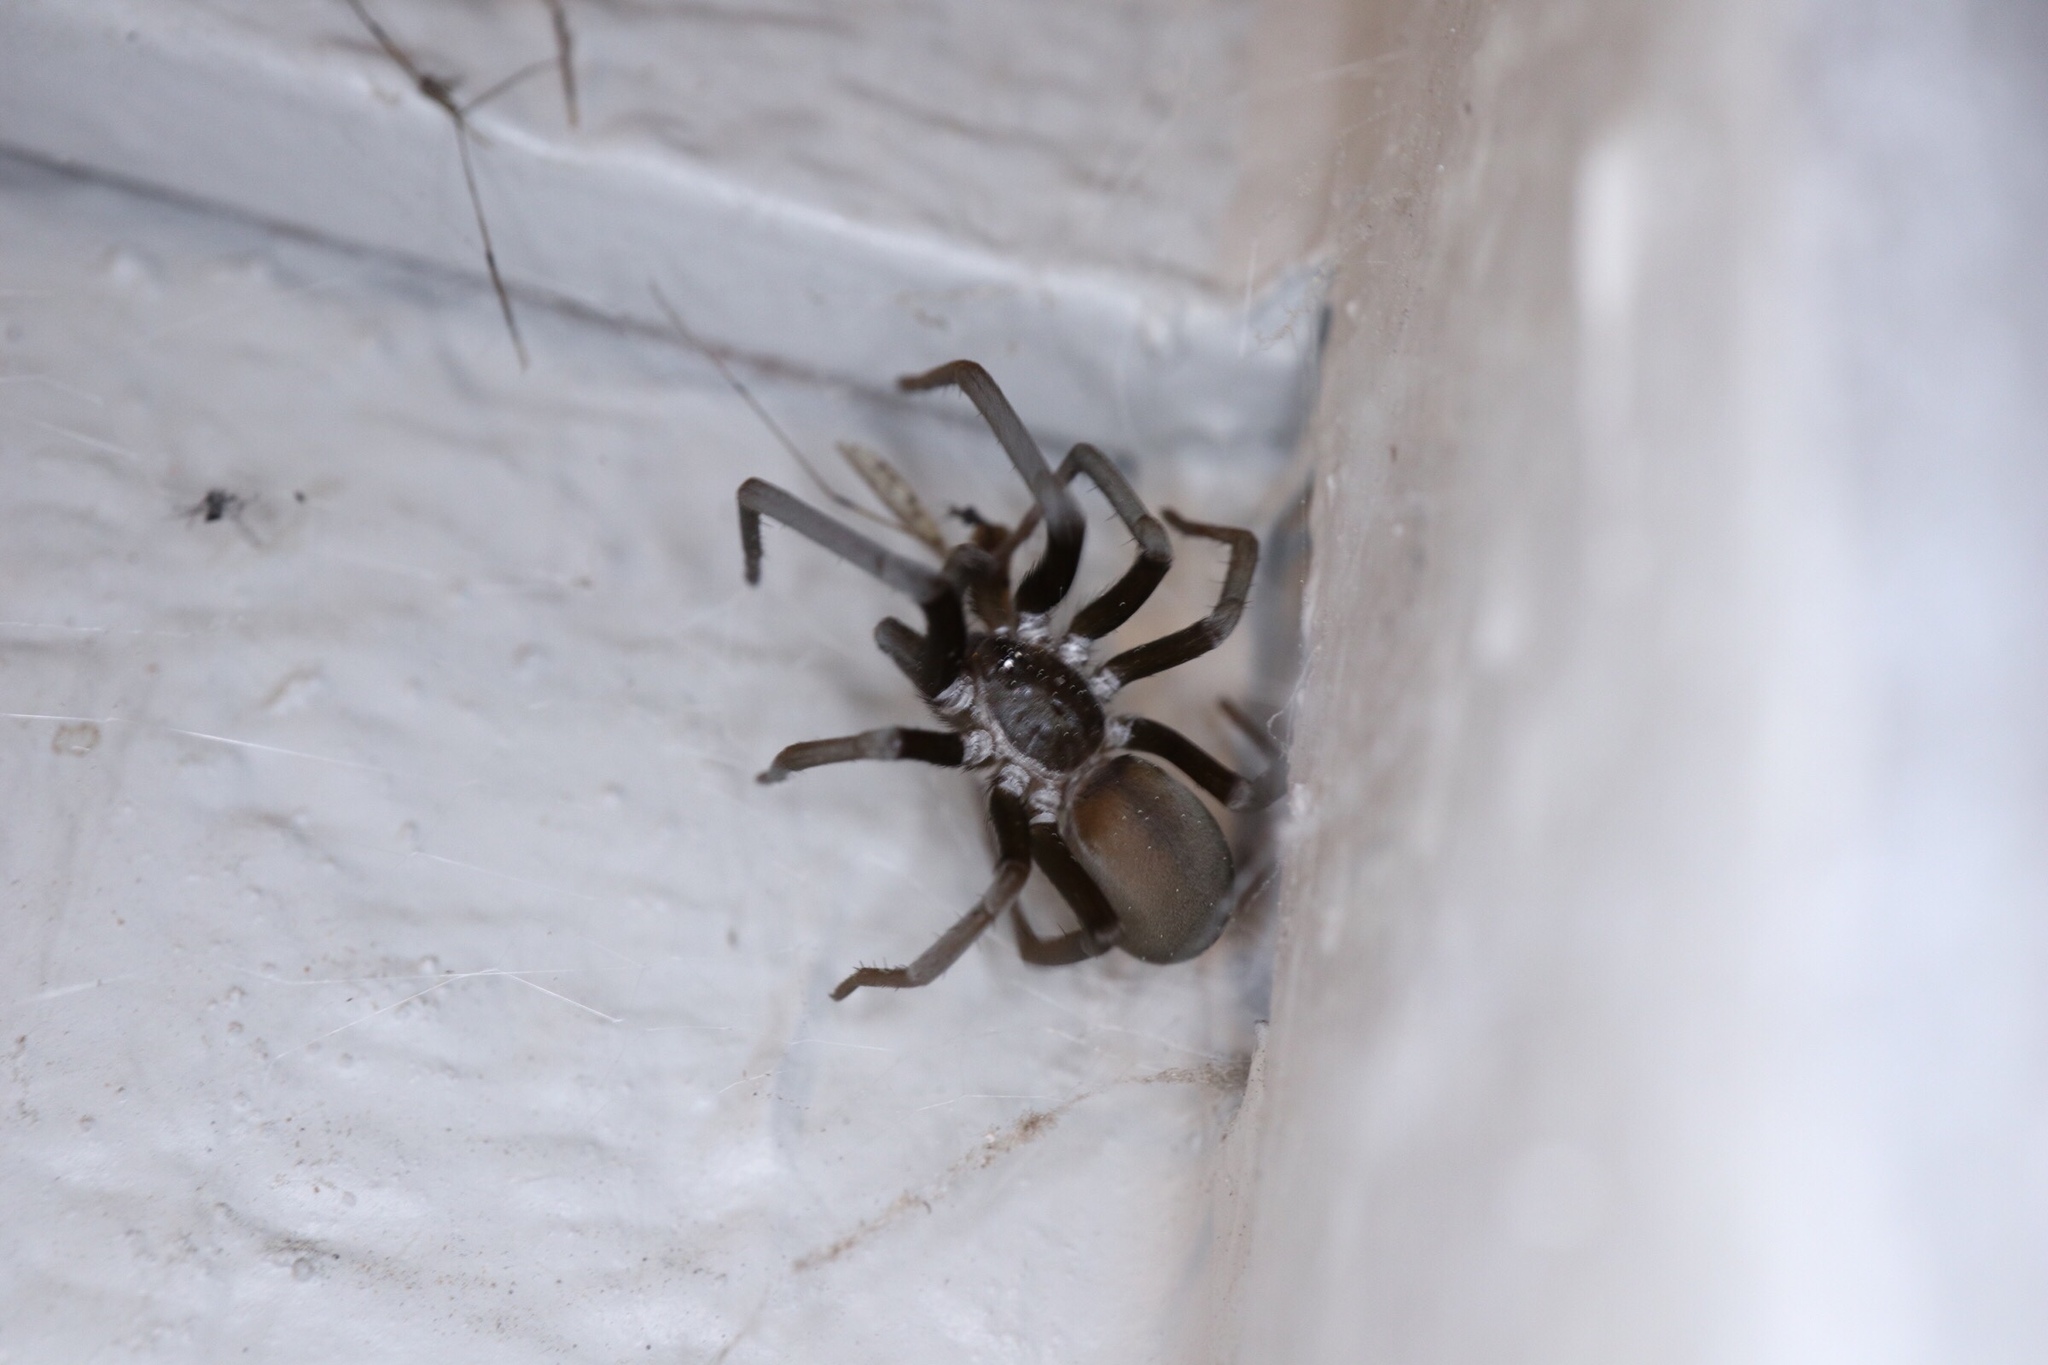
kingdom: Animalia
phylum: Arthropoda
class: Arachnida
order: Araneae
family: Filistatidae
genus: Kukulcania
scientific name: Kukulcania hibernalis
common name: Crevice weaver
